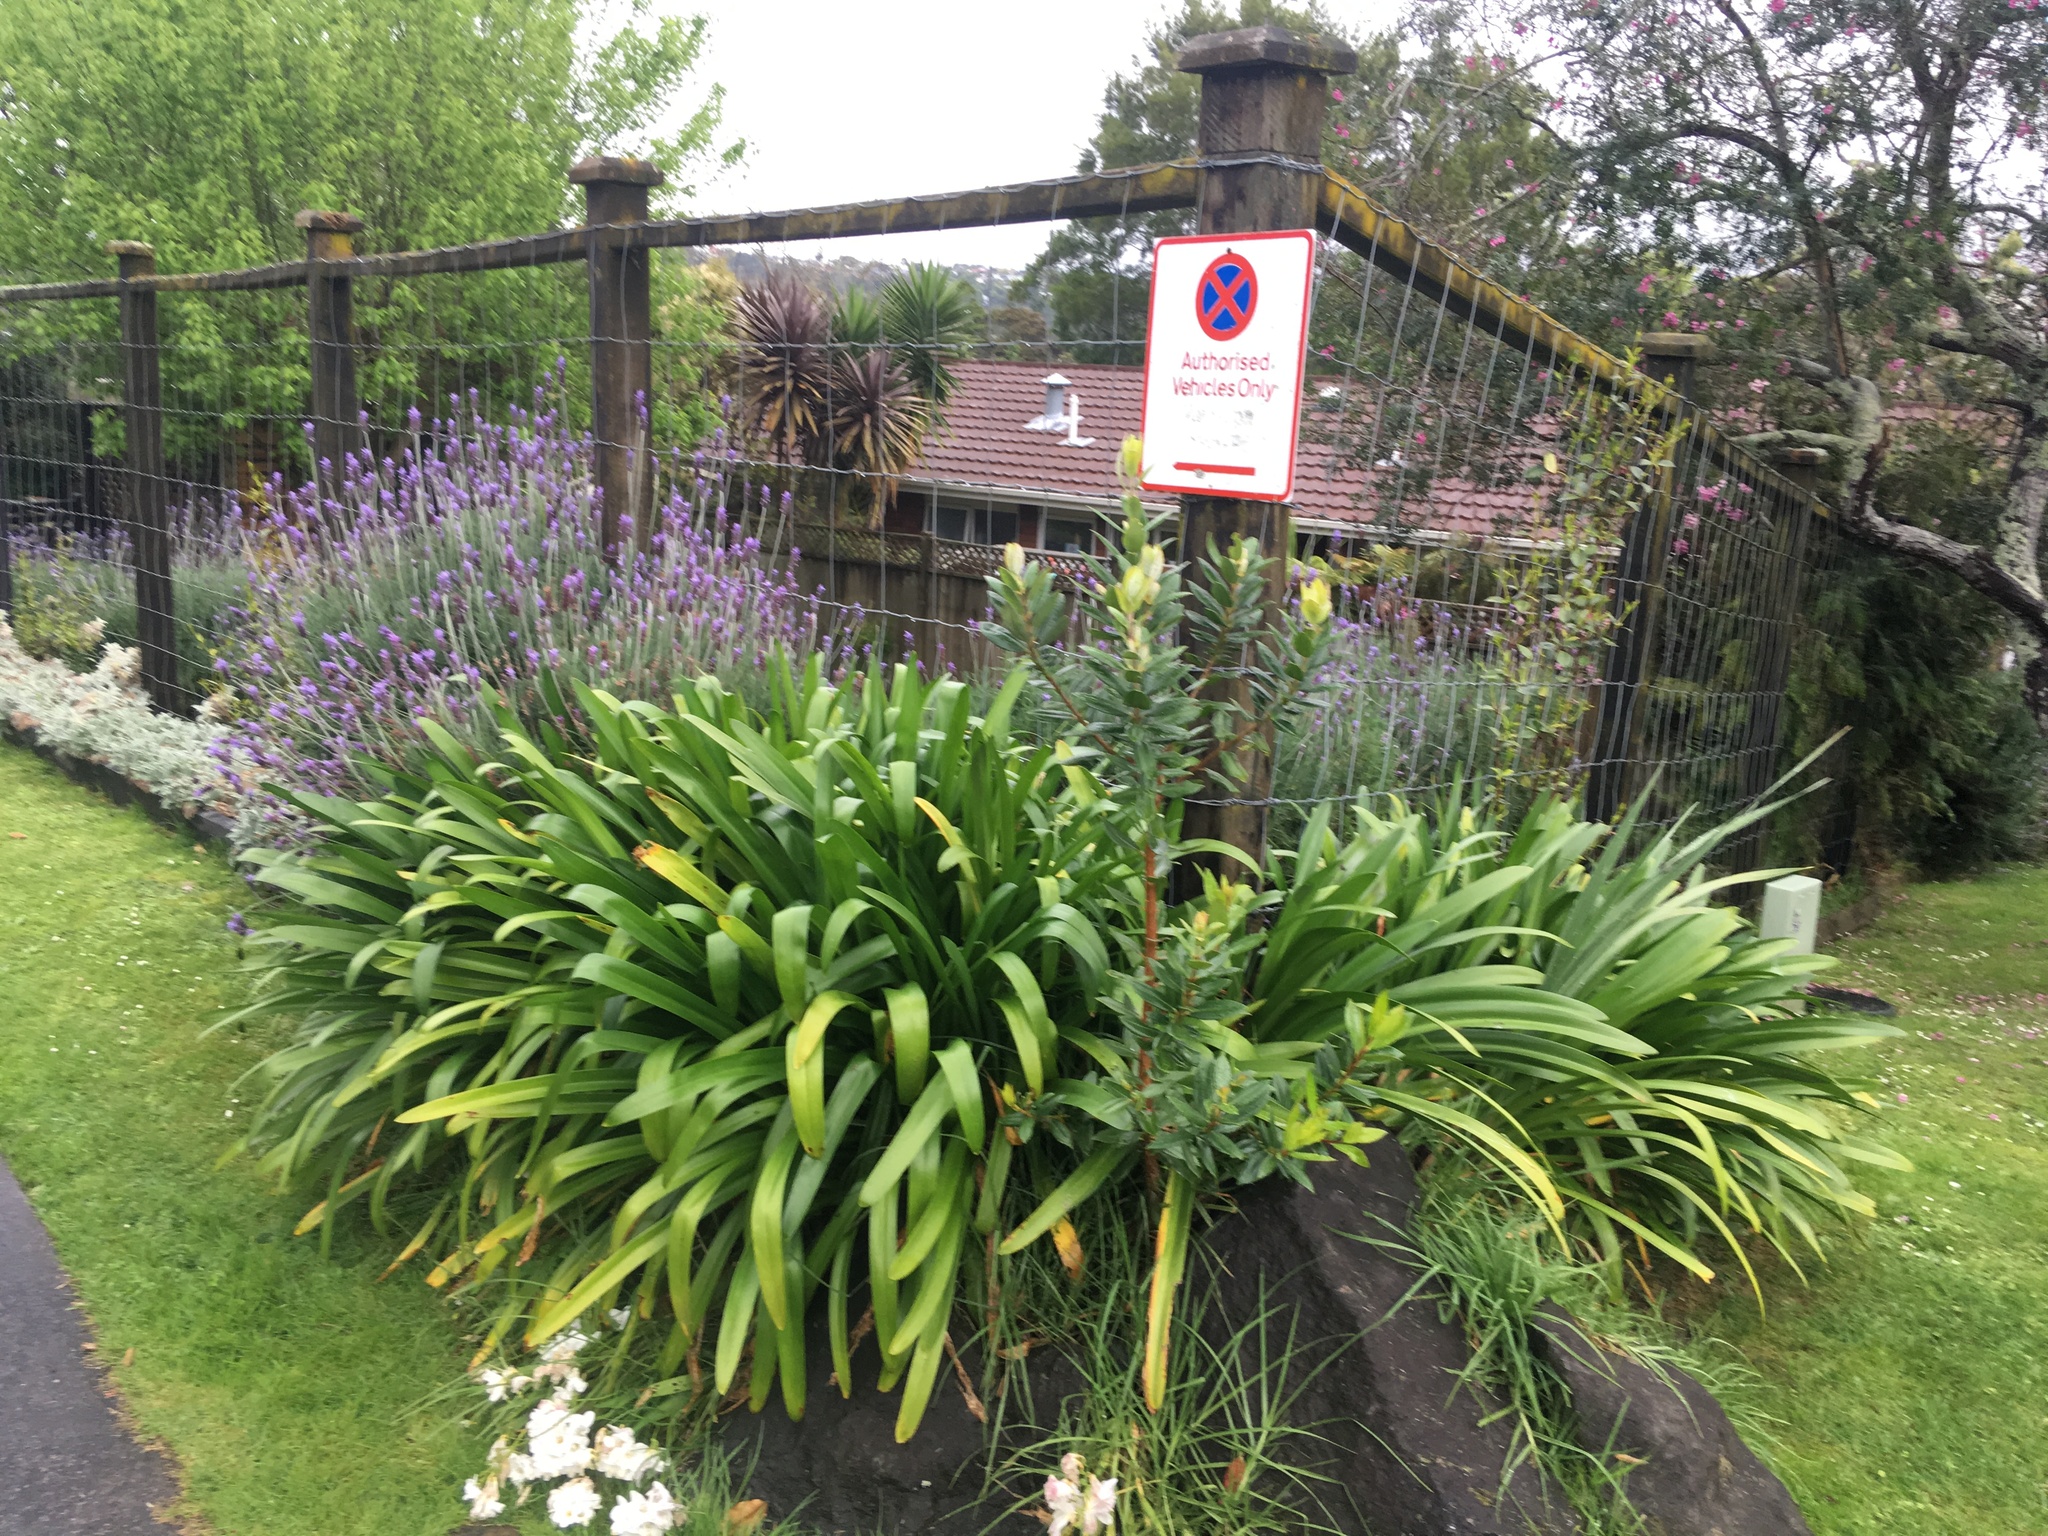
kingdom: Plantae
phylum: Tracheophyta
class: Liliopsida
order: Asparagales
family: Amaryllidaceae
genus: Agapanthus
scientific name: Agapanthus praecox
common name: African-lily
